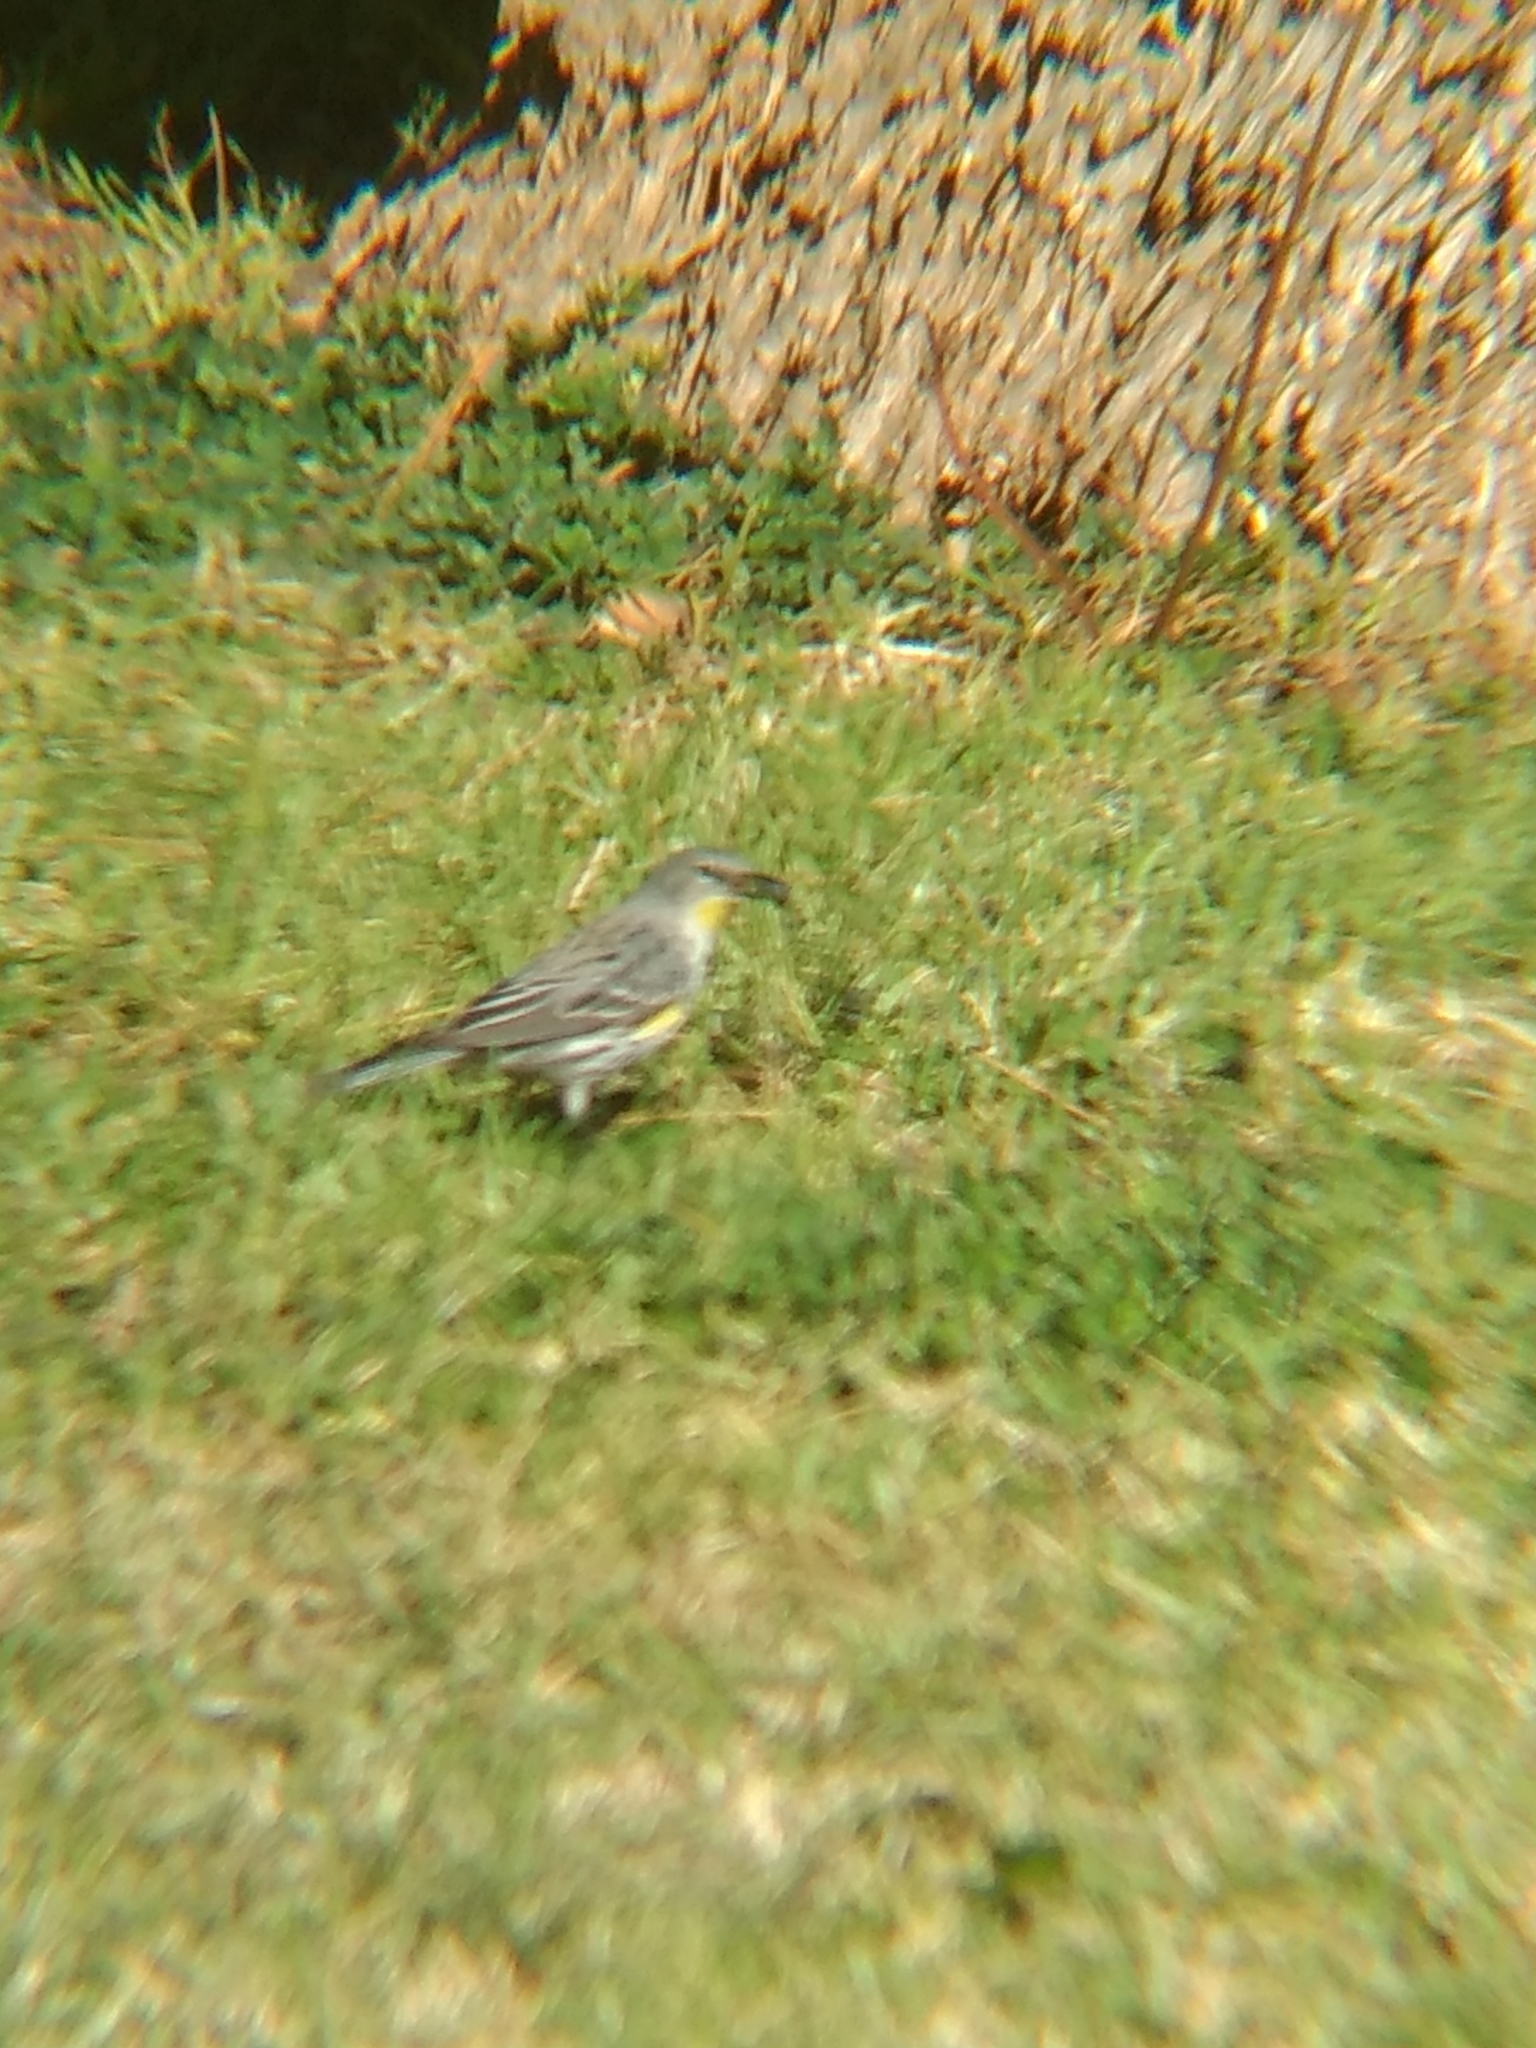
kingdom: Animalia
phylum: Chordata
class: Aves
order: Passeriformes
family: Parulidae
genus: Setophaga
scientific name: Setophaga coronata
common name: Myrtle warbler
